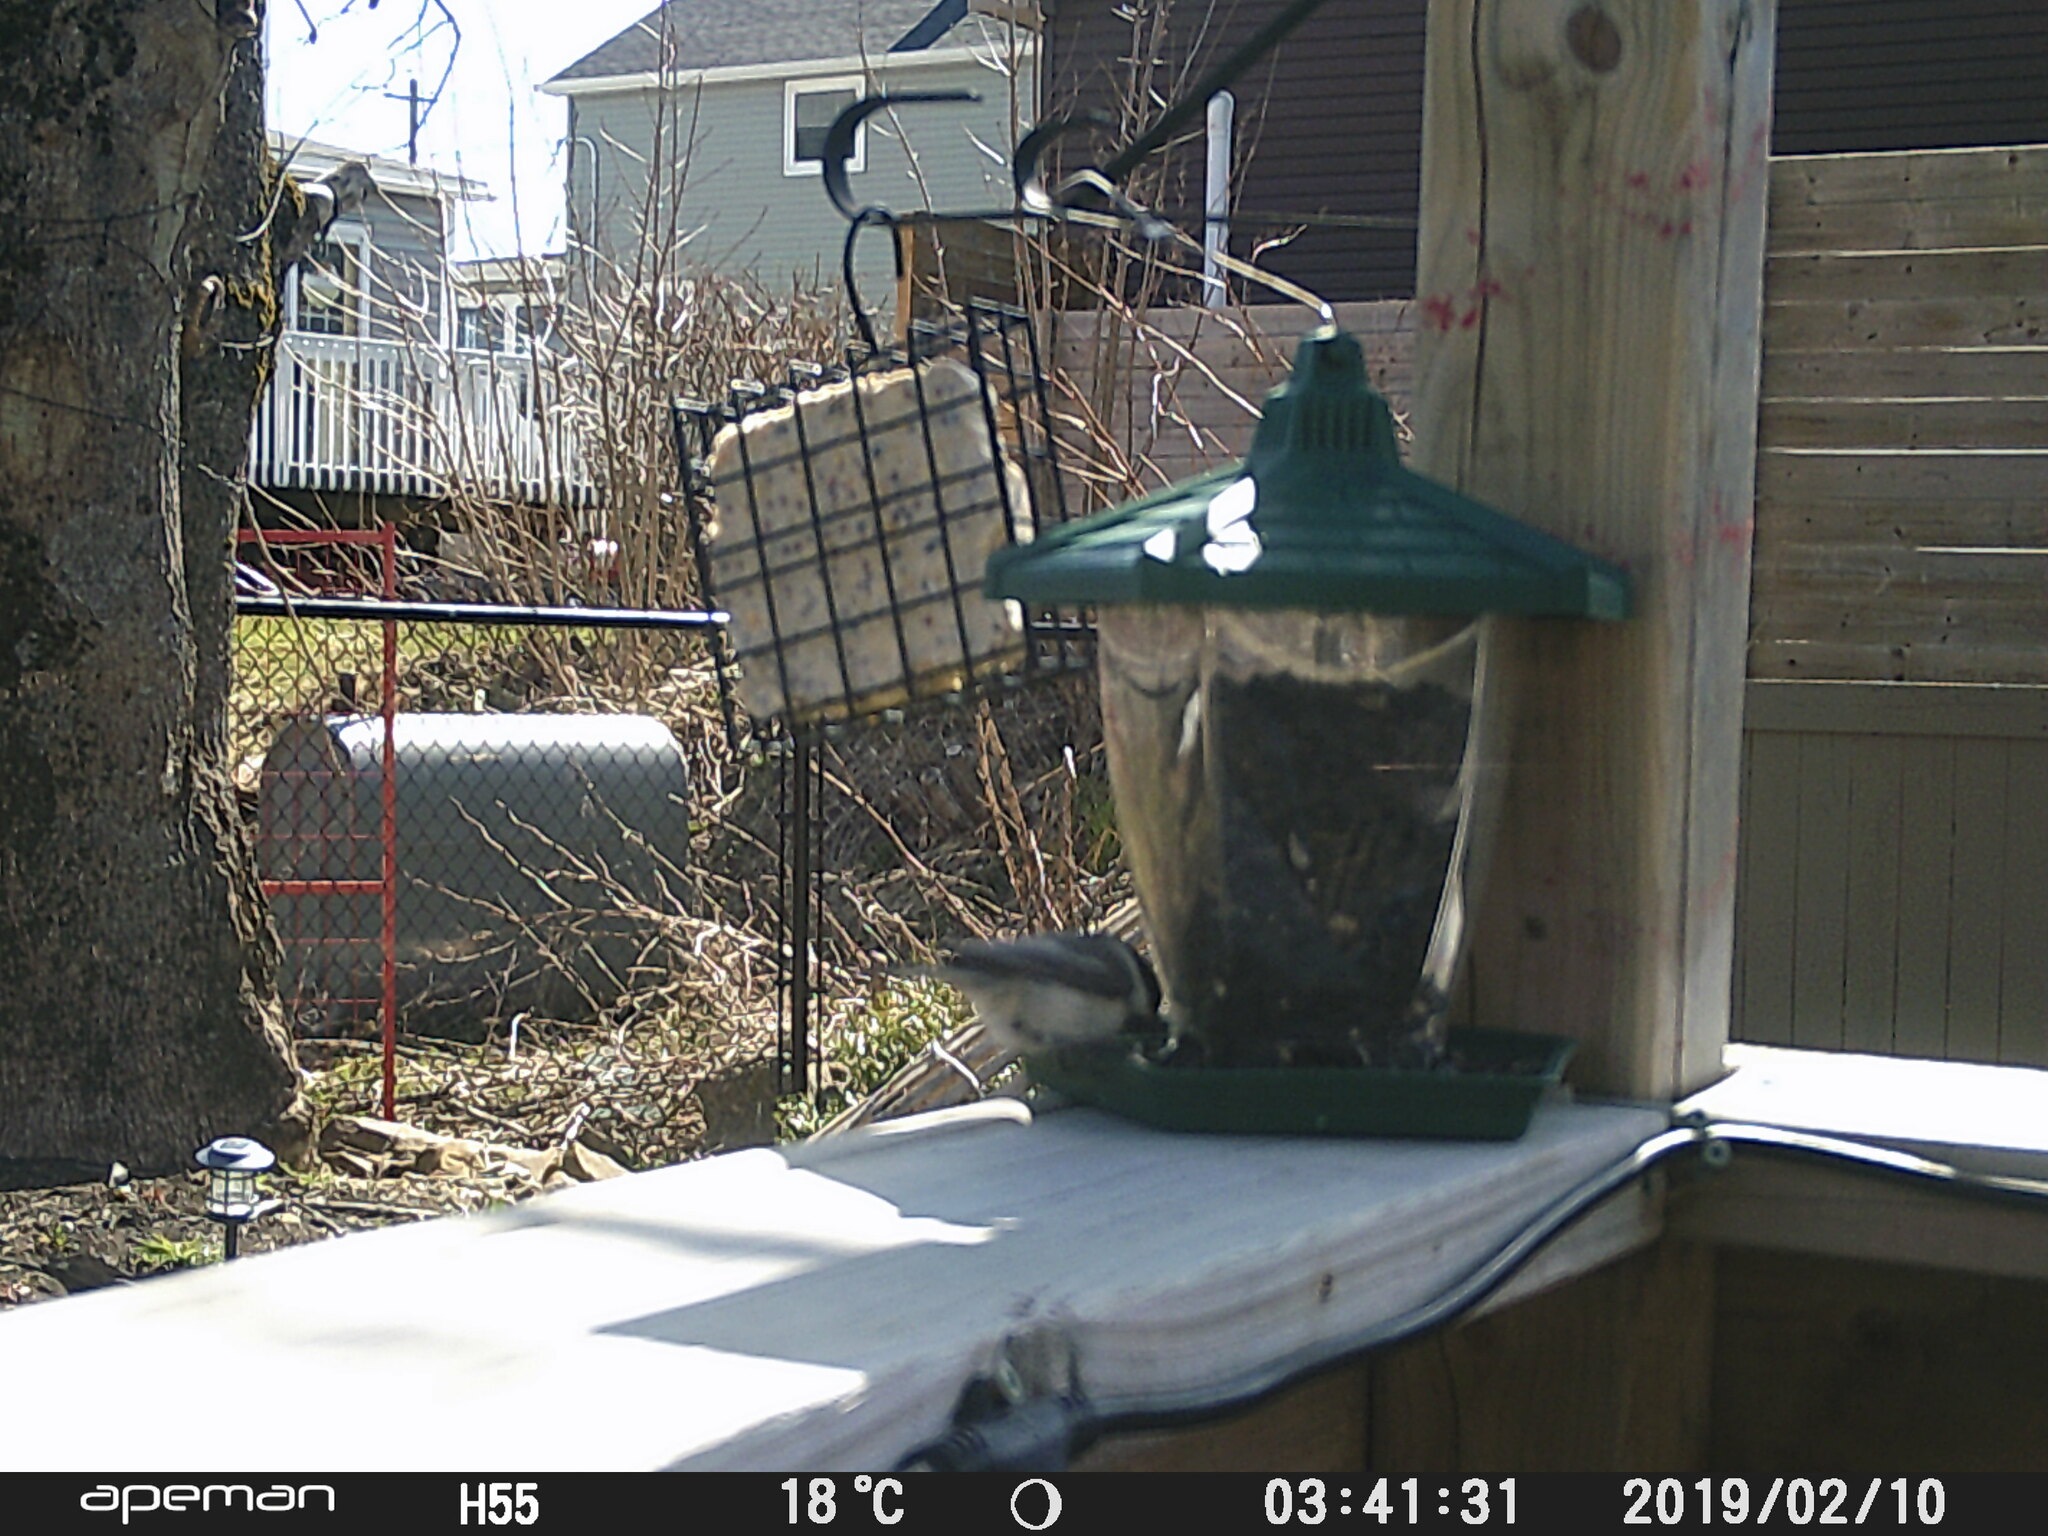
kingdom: Animalia
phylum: Chordata
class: Aves
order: Passeriformes
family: Paridae
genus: Poecile
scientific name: Poecile atricapillus
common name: Black-capped chickadee
